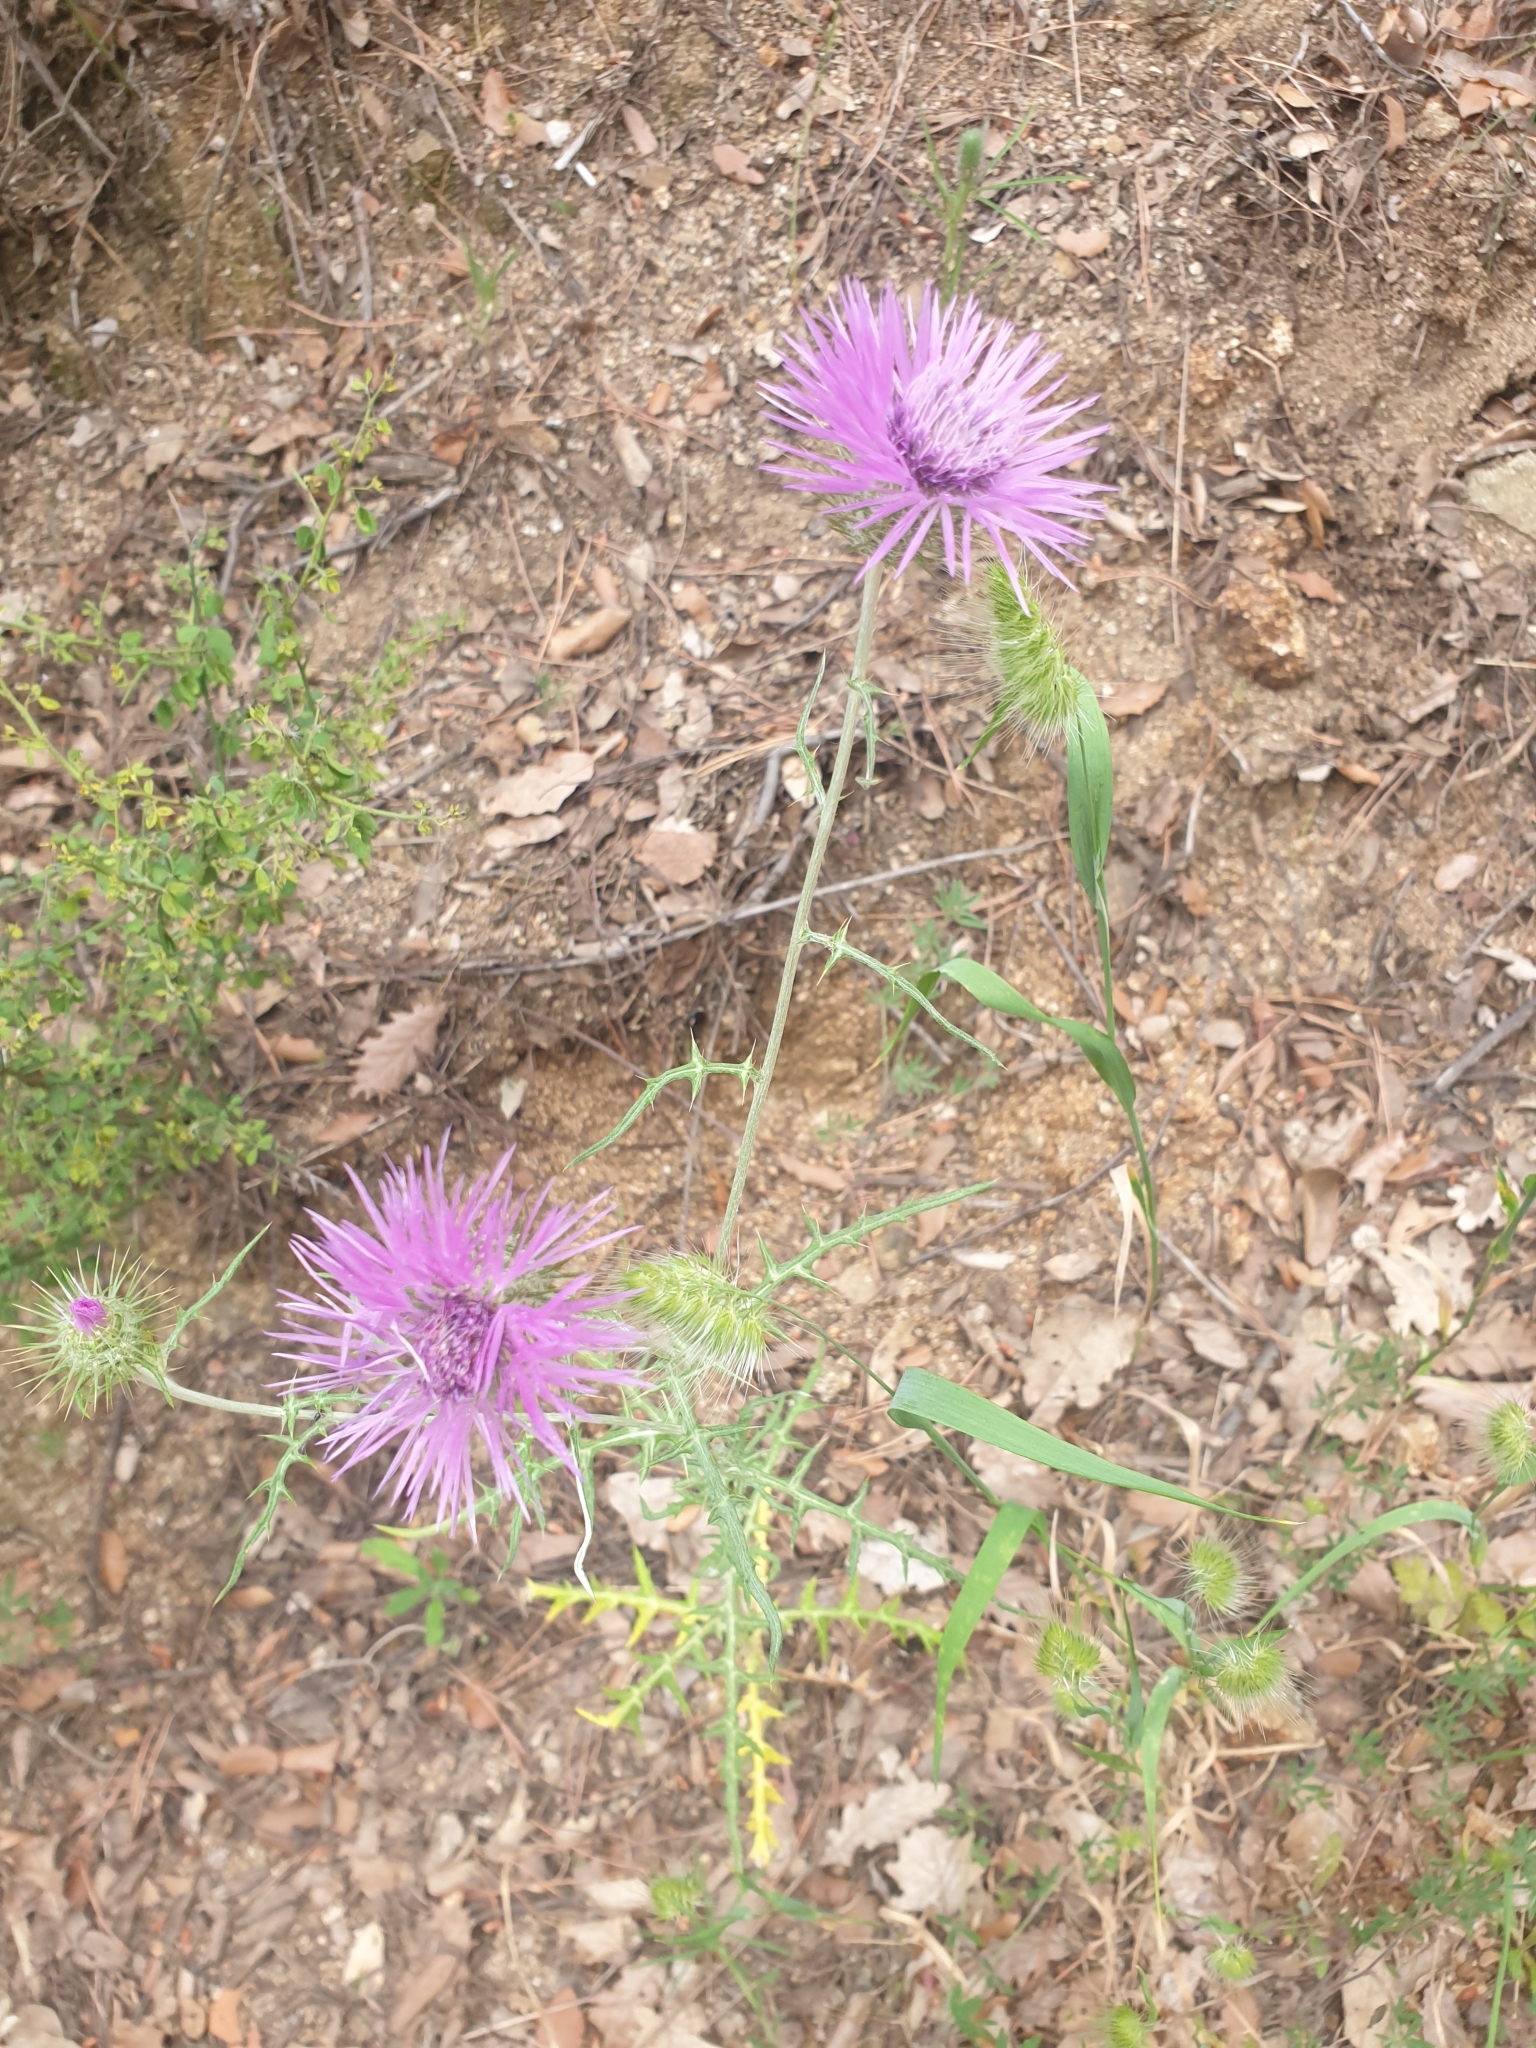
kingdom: Plantae
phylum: Tracheophyta
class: Magnoliopsida
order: Asterales
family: Asteraceae
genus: Galactites
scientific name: Galactites tomentosa
